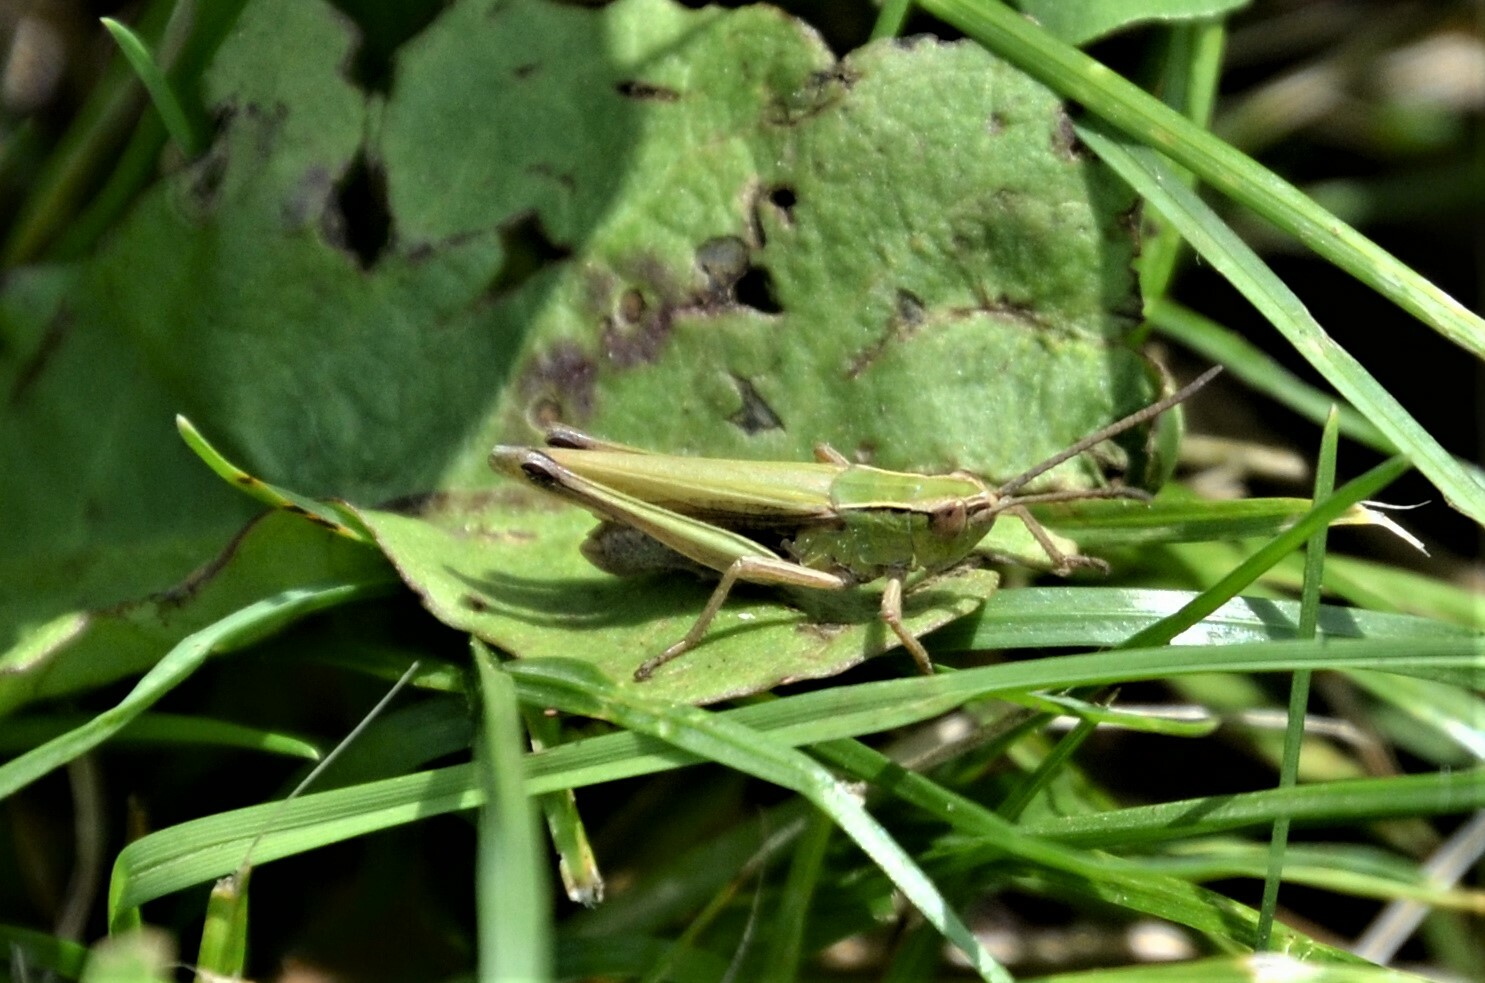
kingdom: Animalia
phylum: Arthropoda
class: Insecta
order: Orthoptera
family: Acrididae
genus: Chorthippus
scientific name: Chorthippus albomarginatus
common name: Lesser marsh grasshopper
